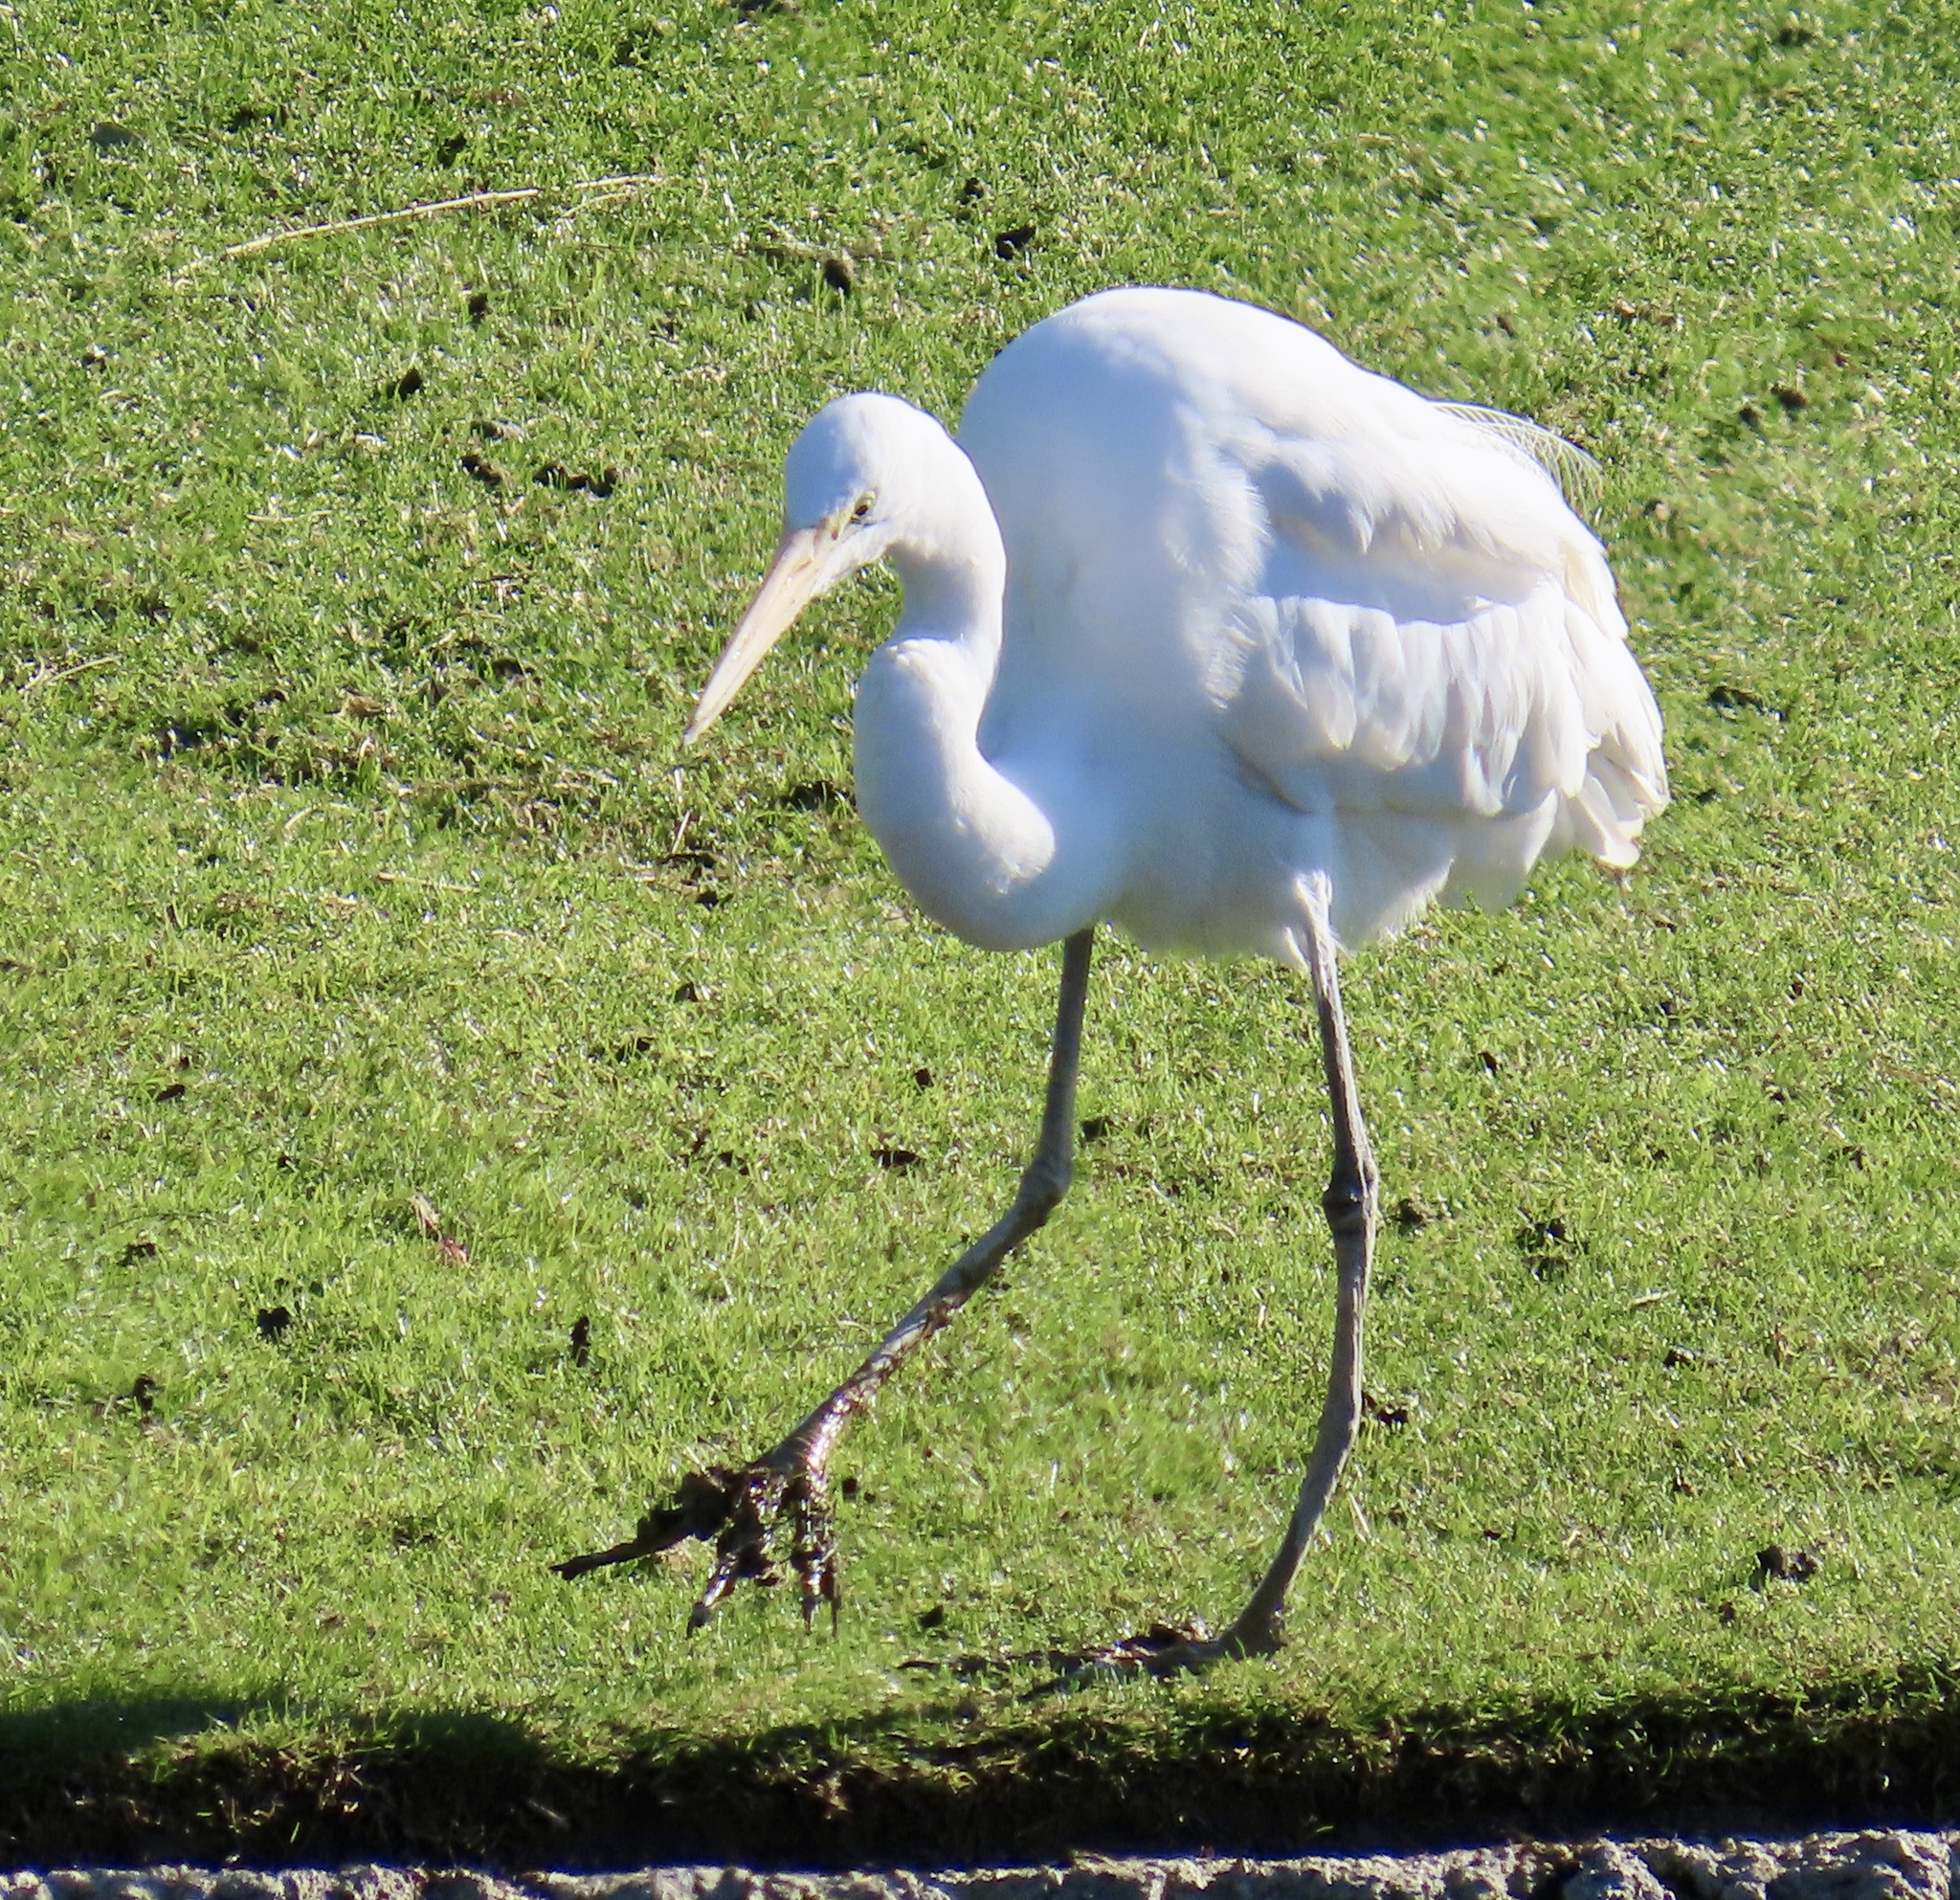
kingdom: Animalia
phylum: Chordata
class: Aves
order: Pelecaniformes
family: Ardeidae
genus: Ardea
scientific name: Ardea alba
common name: Great egret
